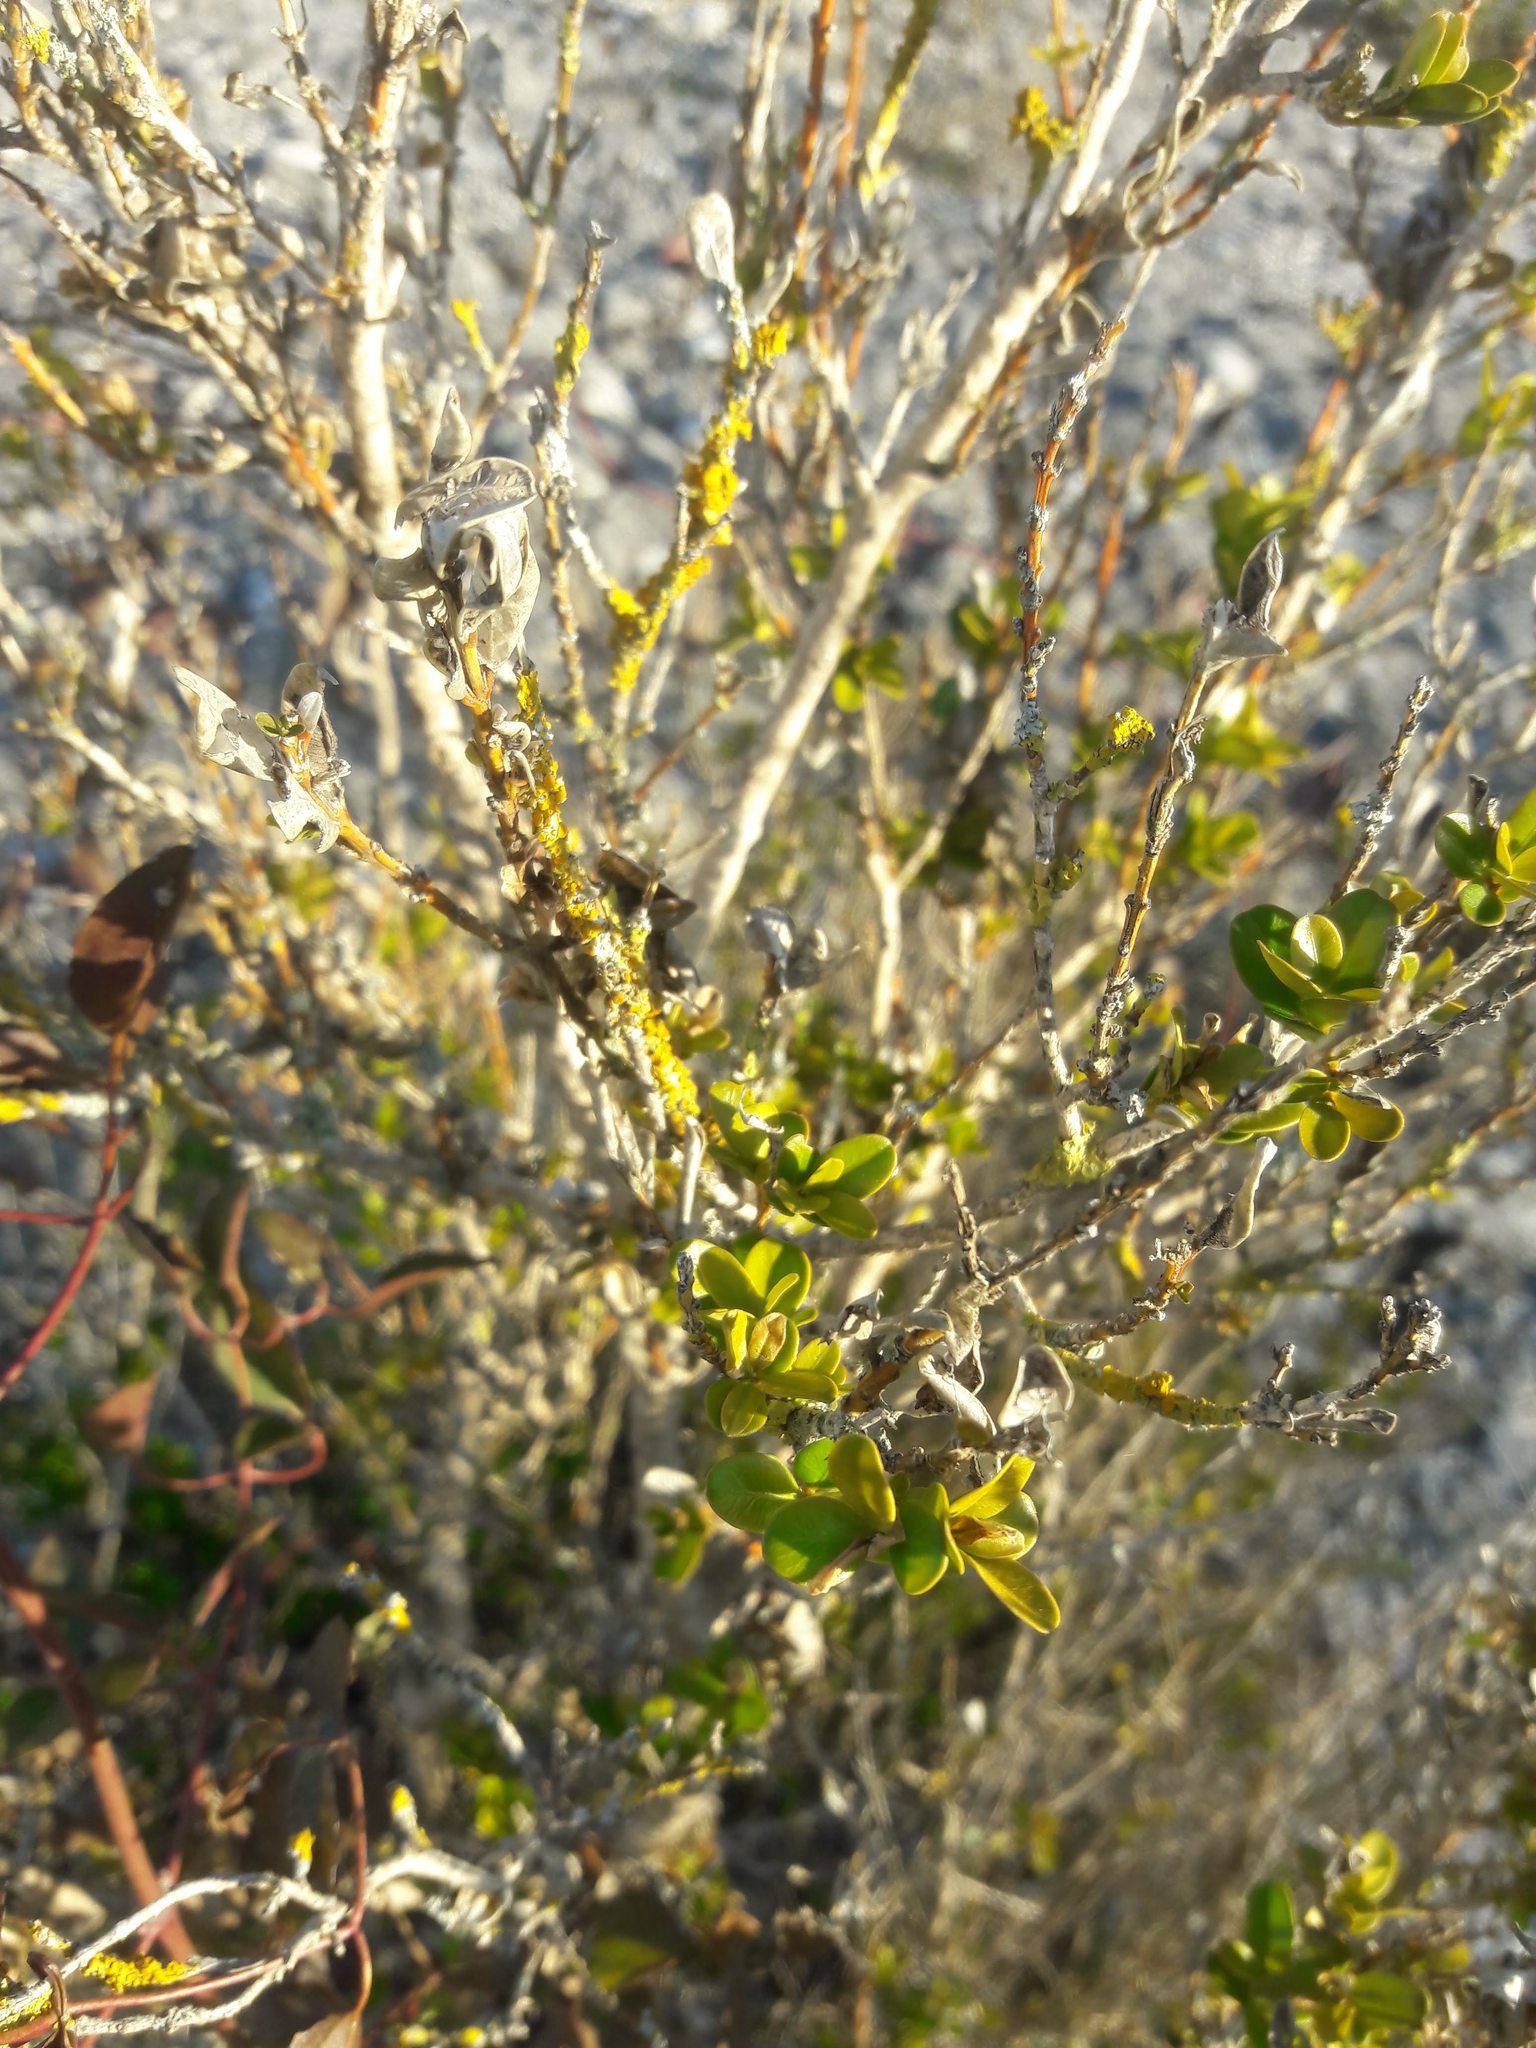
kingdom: Plantae
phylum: Tracheophyta
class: Magnoliopsida
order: Buxales
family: Buxaceae
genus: Buxus
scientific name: Buxus sempervirens
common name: Box
